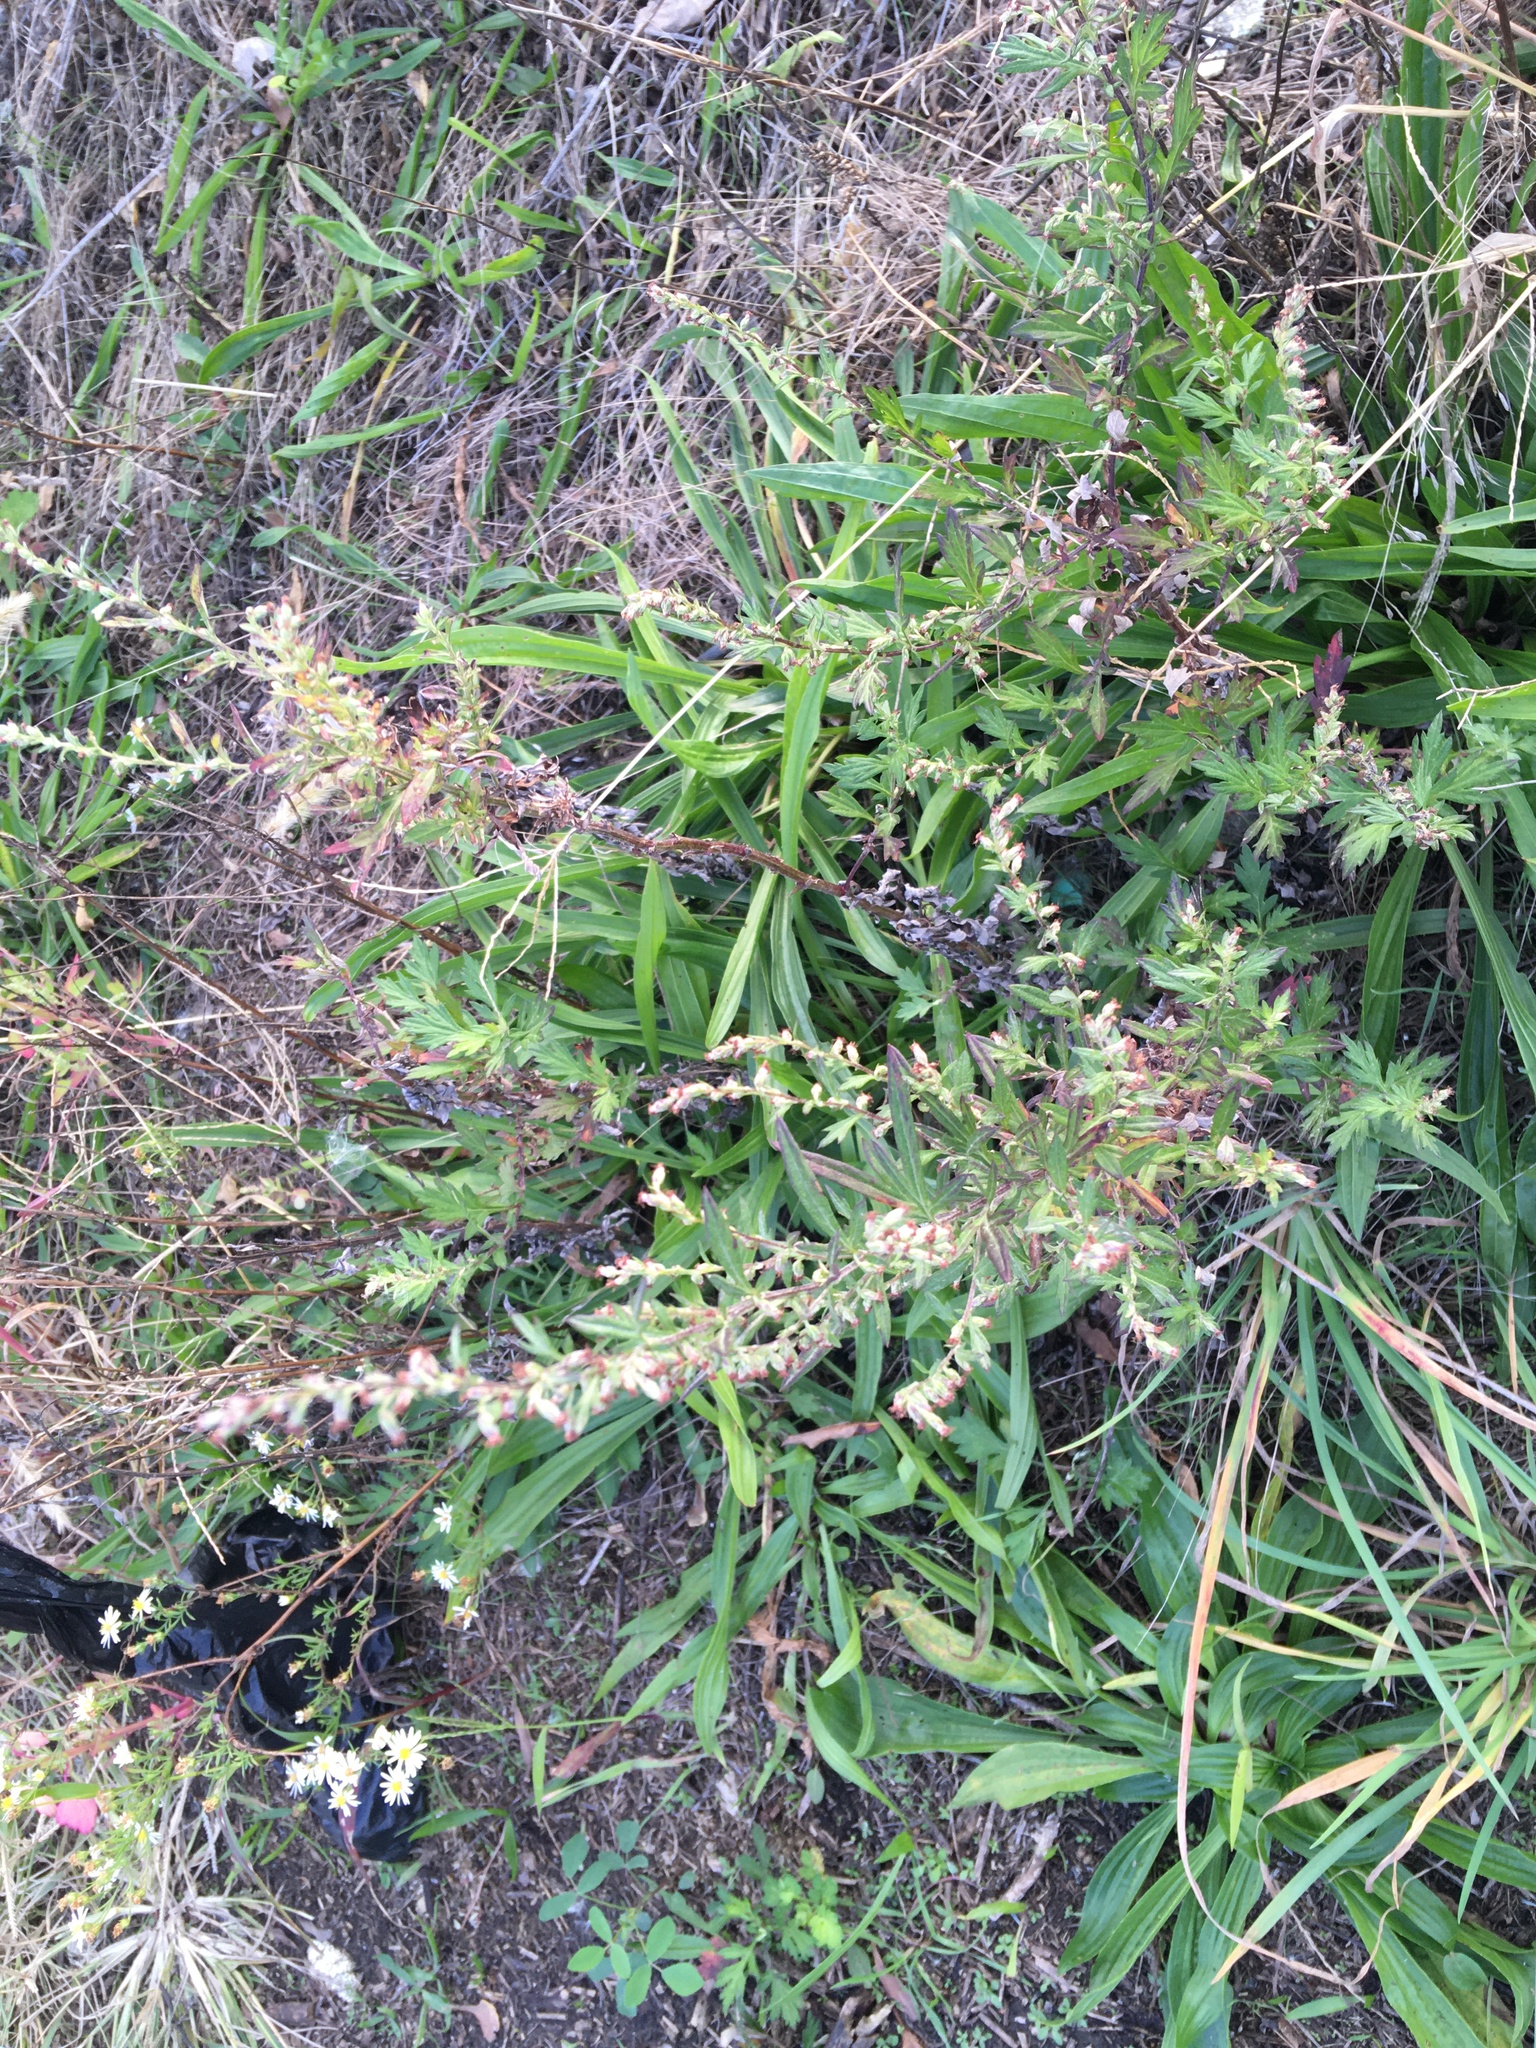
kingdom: Plantae
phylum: Tracheophyta
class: Magnoliopsida
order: Asterales
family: Asteraceae
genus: Artemisia
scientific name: Artemisia vulgaris
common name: Mugwort
